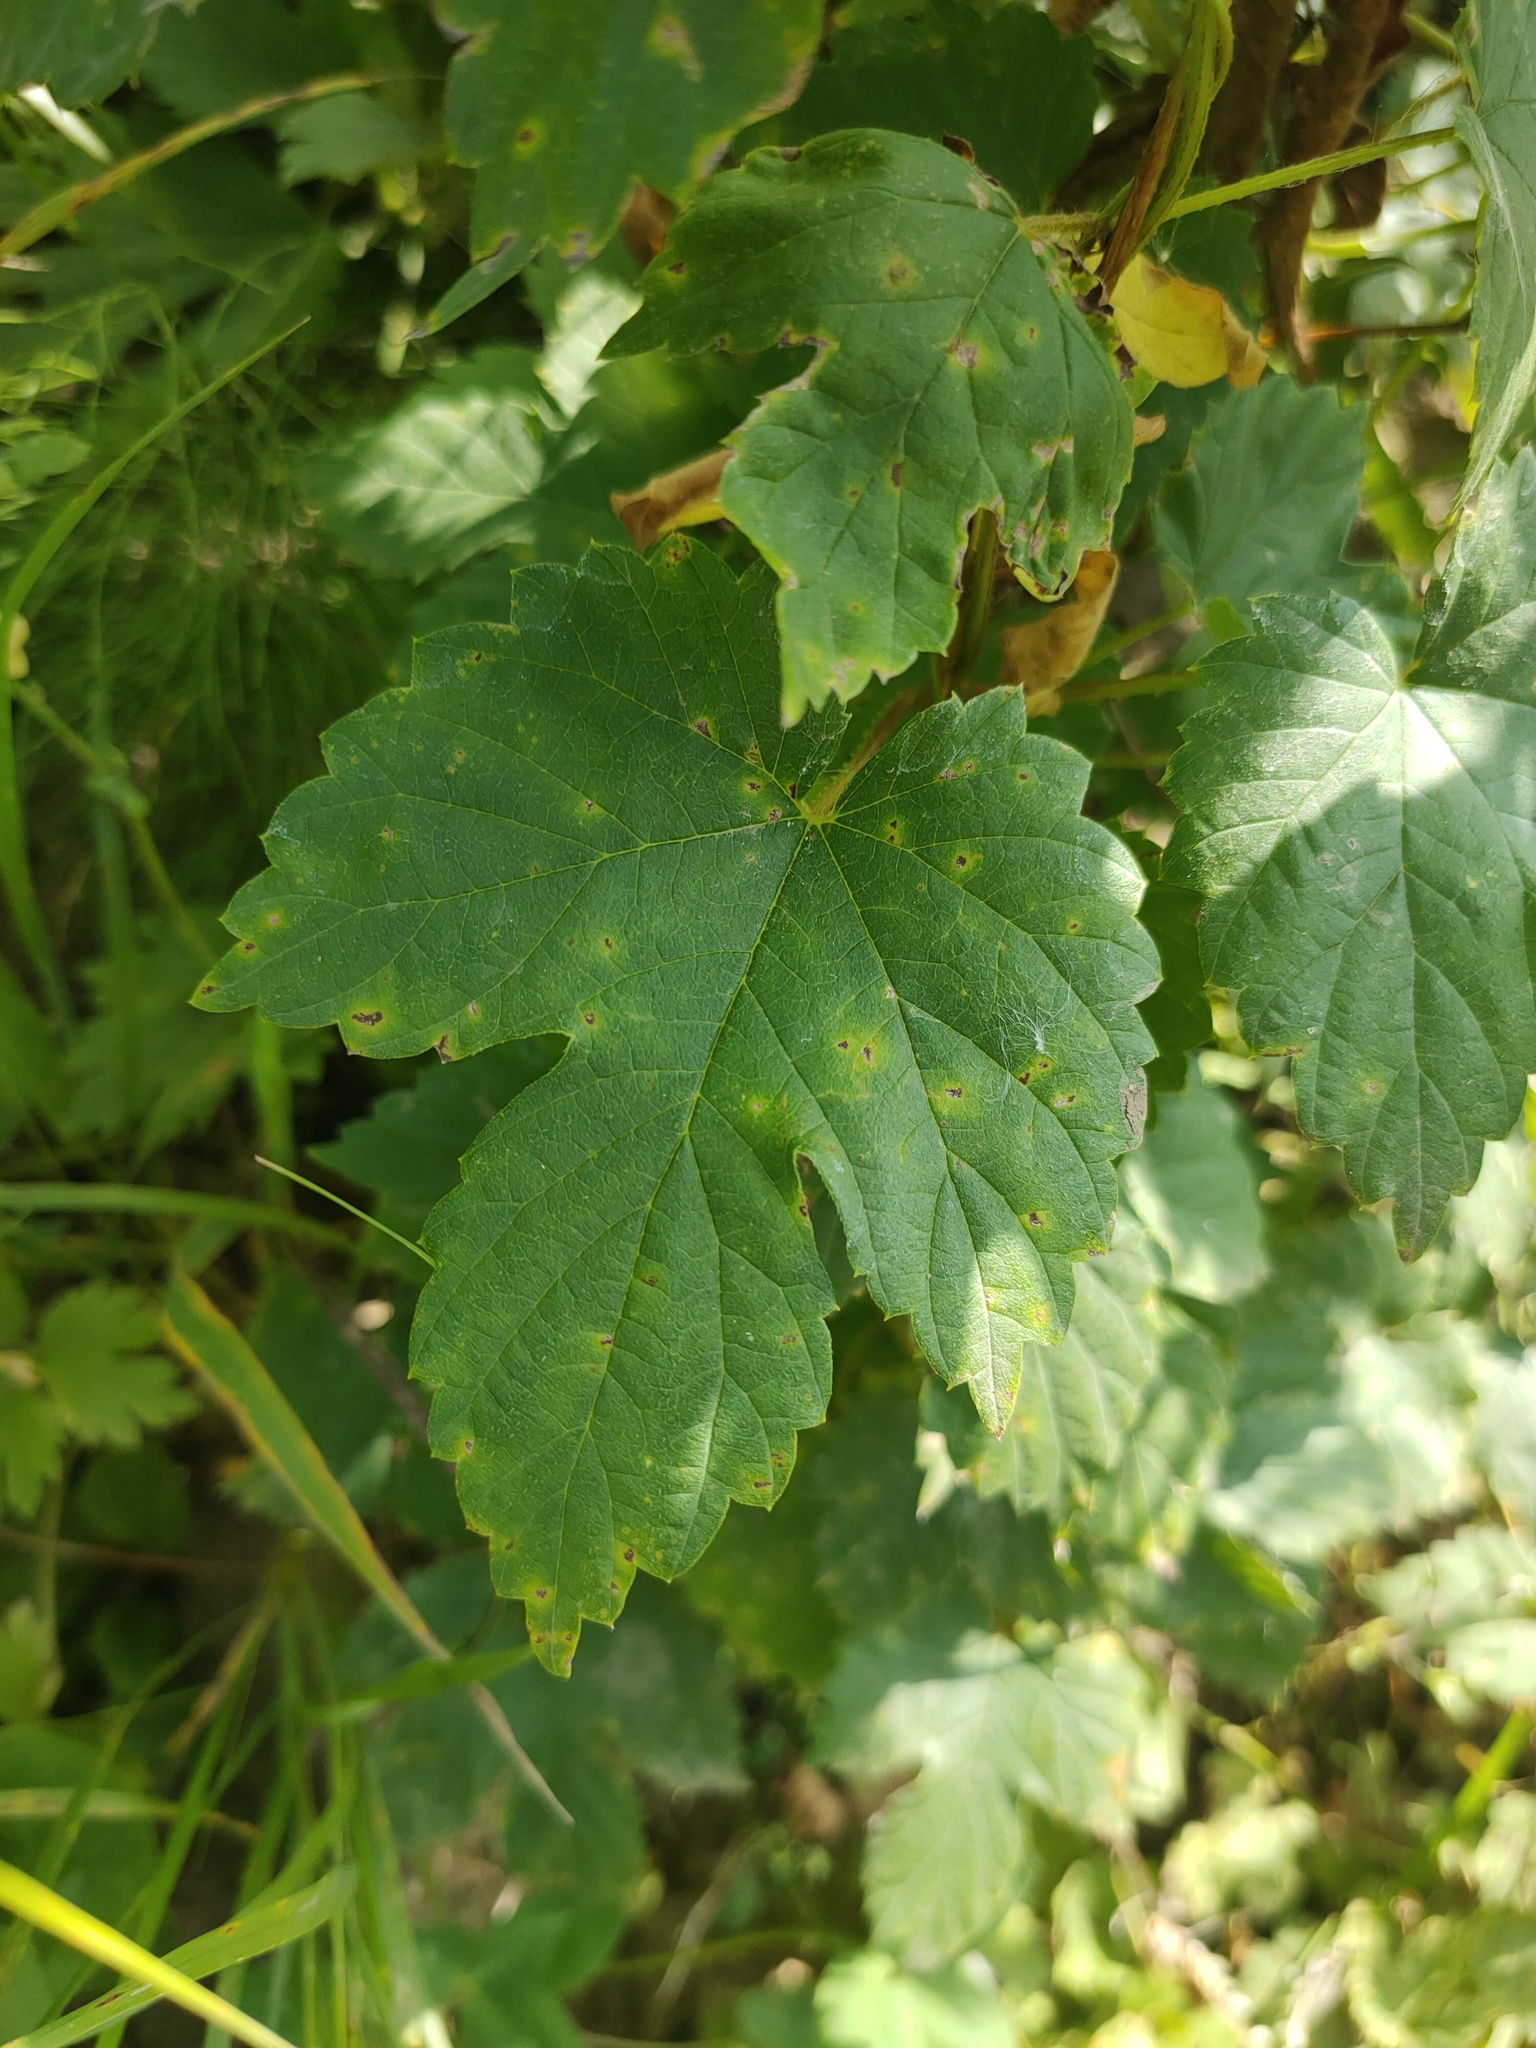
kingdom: Plantae
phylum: Tracheophyta
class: Magnoliopsida
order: Rosales
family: Cannabaceae
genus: Humulus
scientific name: Humulus lupulus
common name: Hop
